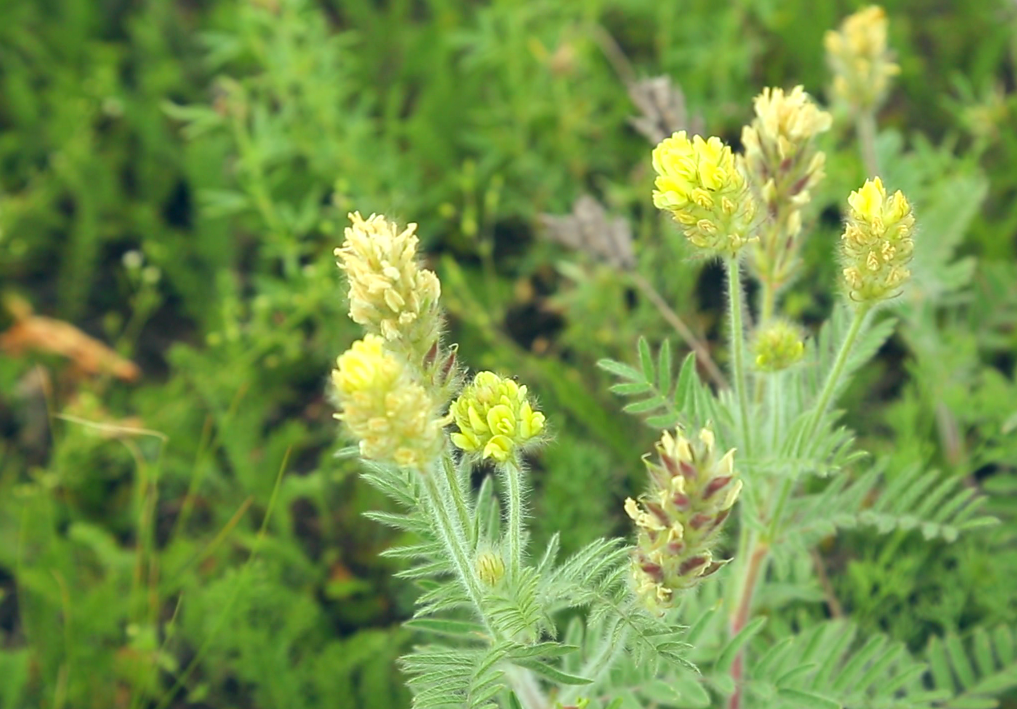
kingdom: Plantae
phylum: Tracheophyta
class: Magnoliopsida
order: Fabales
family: Fabaceae
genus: Oxytropis
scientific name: Oxytropis pilosa
